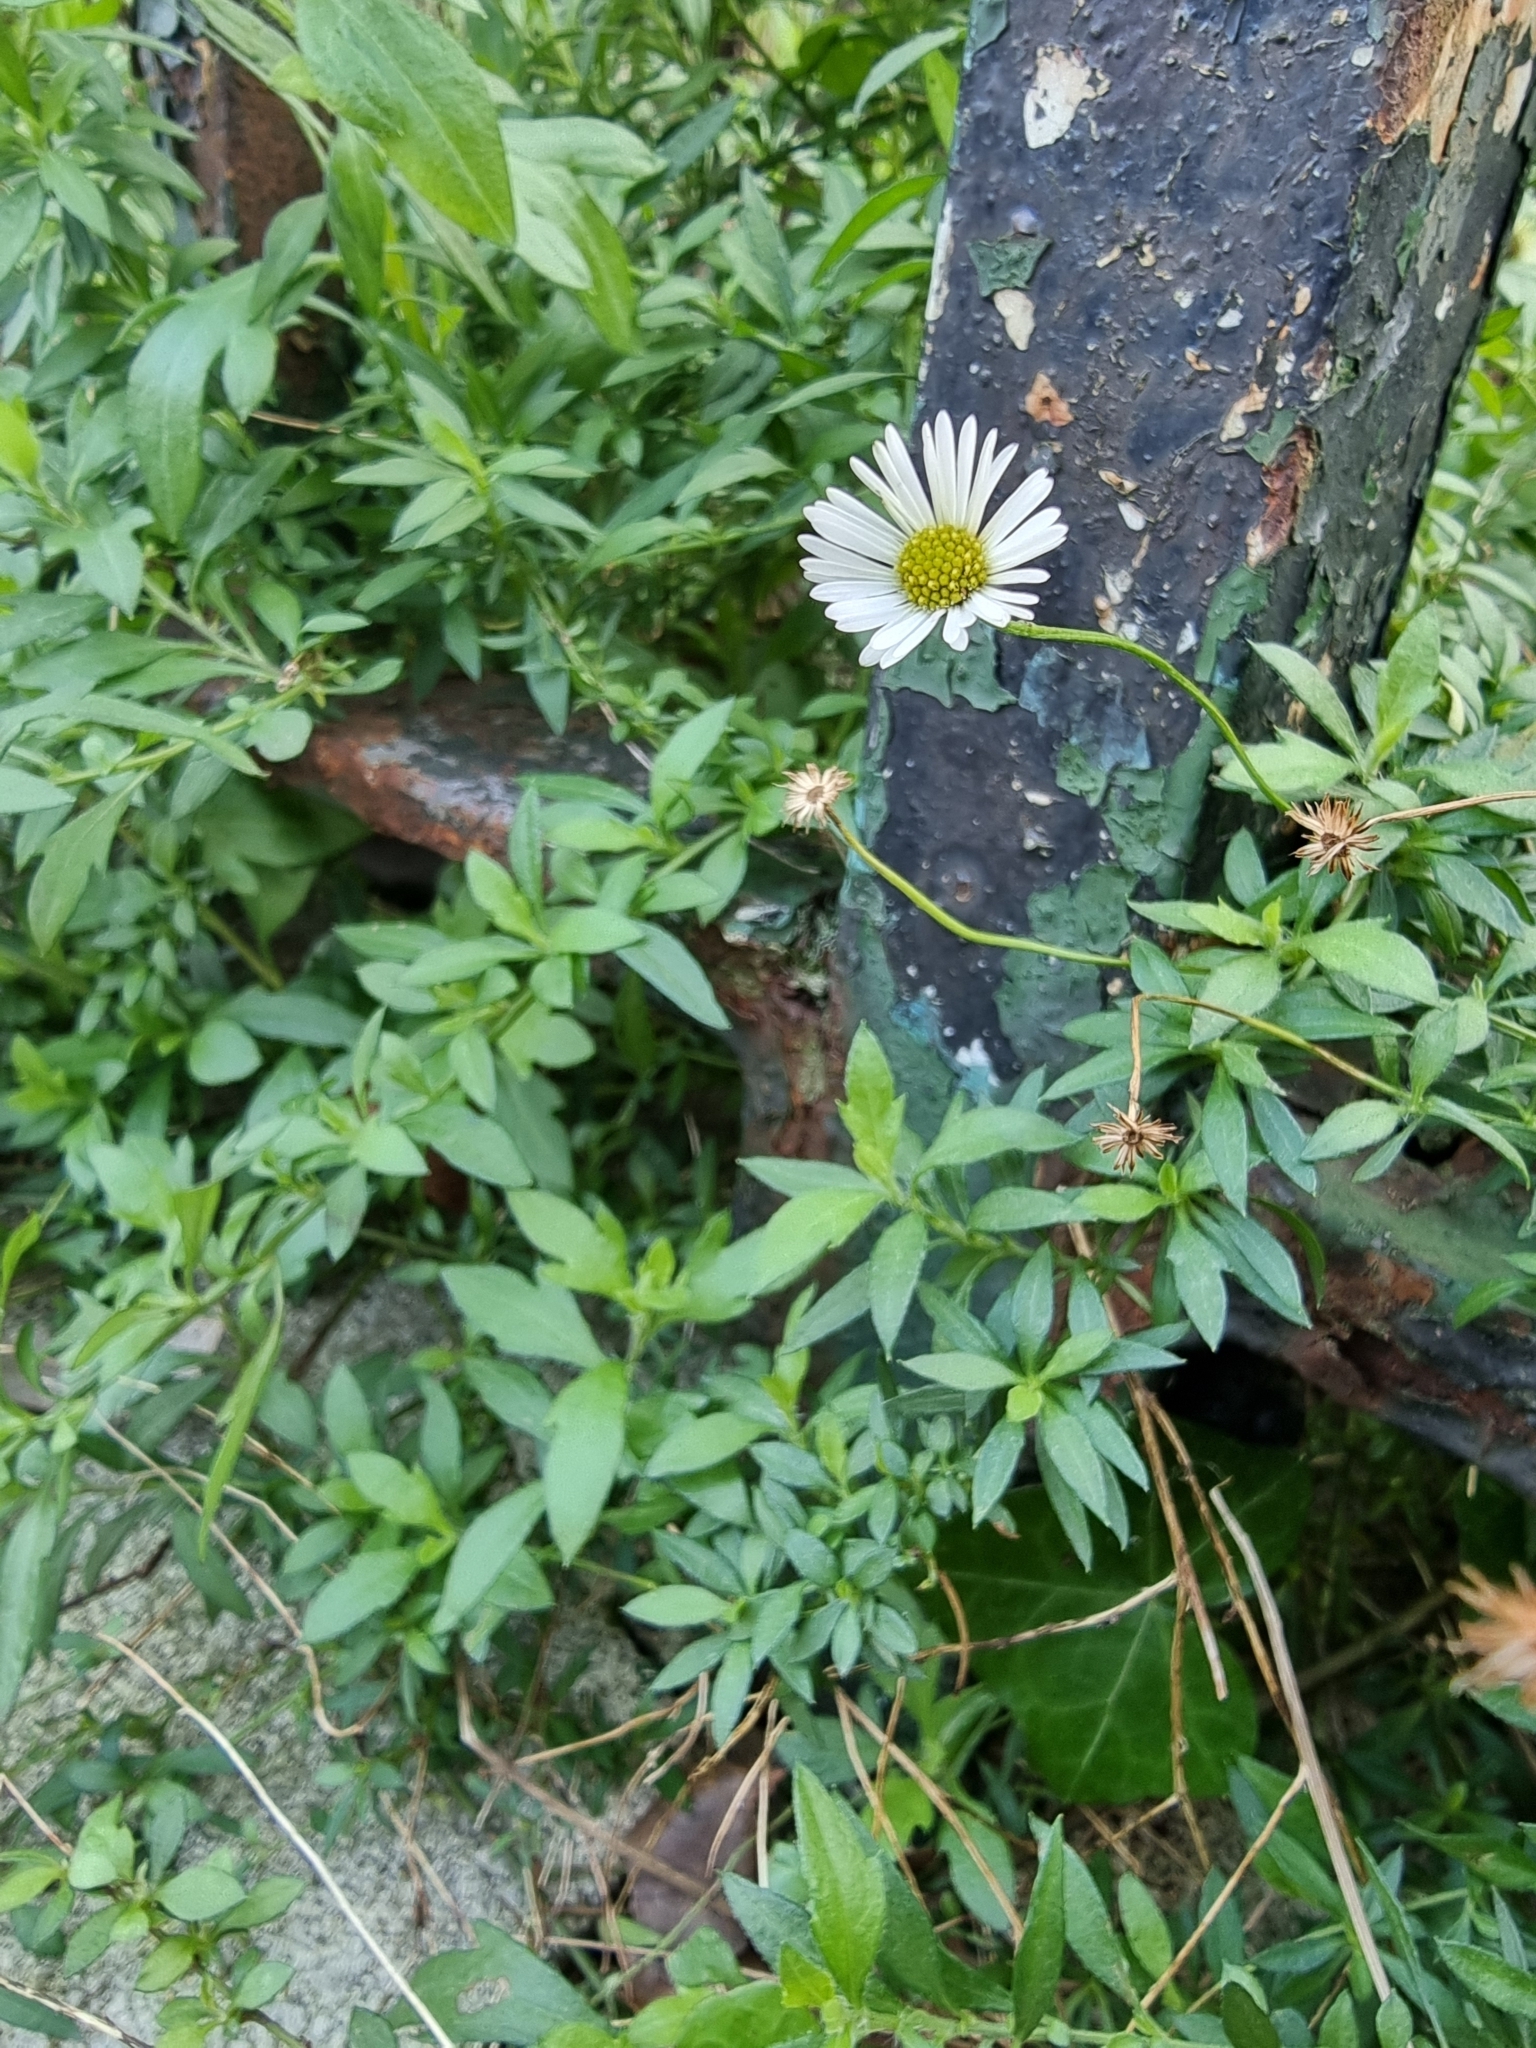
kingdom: Plantae
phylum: Tracheophyta
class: Magnoliopsida
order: Asterales
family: Asteraceae
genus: Erigeron
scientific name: Erigeron karvinskianus
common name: Mexican fleabane
